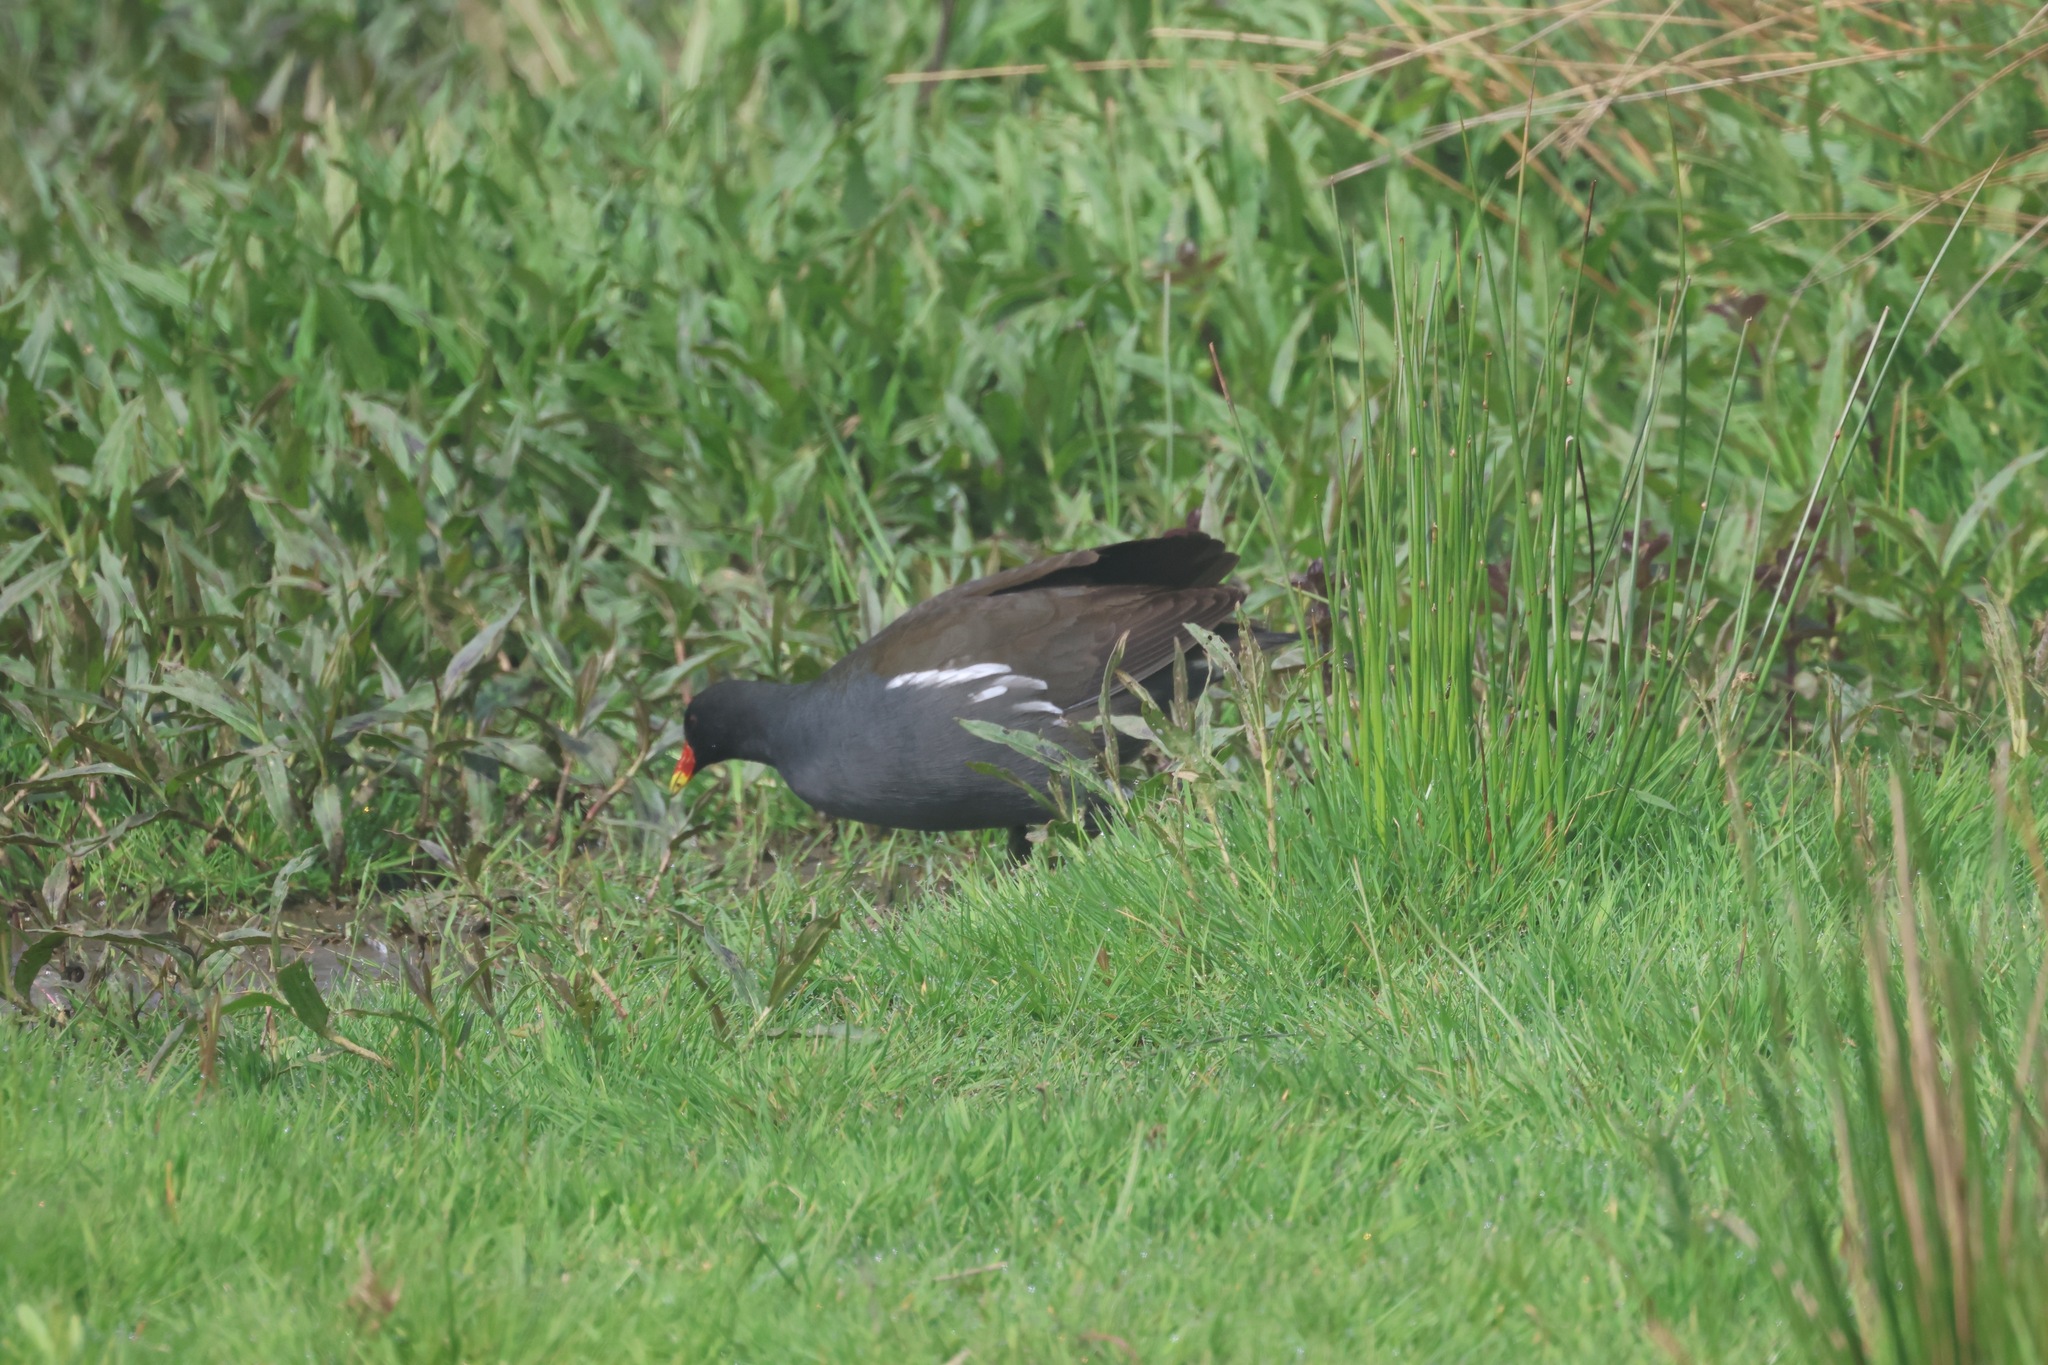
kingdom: Animalia
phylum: Chordata
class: Aves
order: Gruiformes
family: Rallidae
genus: Gallinula
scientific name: Gallinula chloropus
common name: Common moorhen
